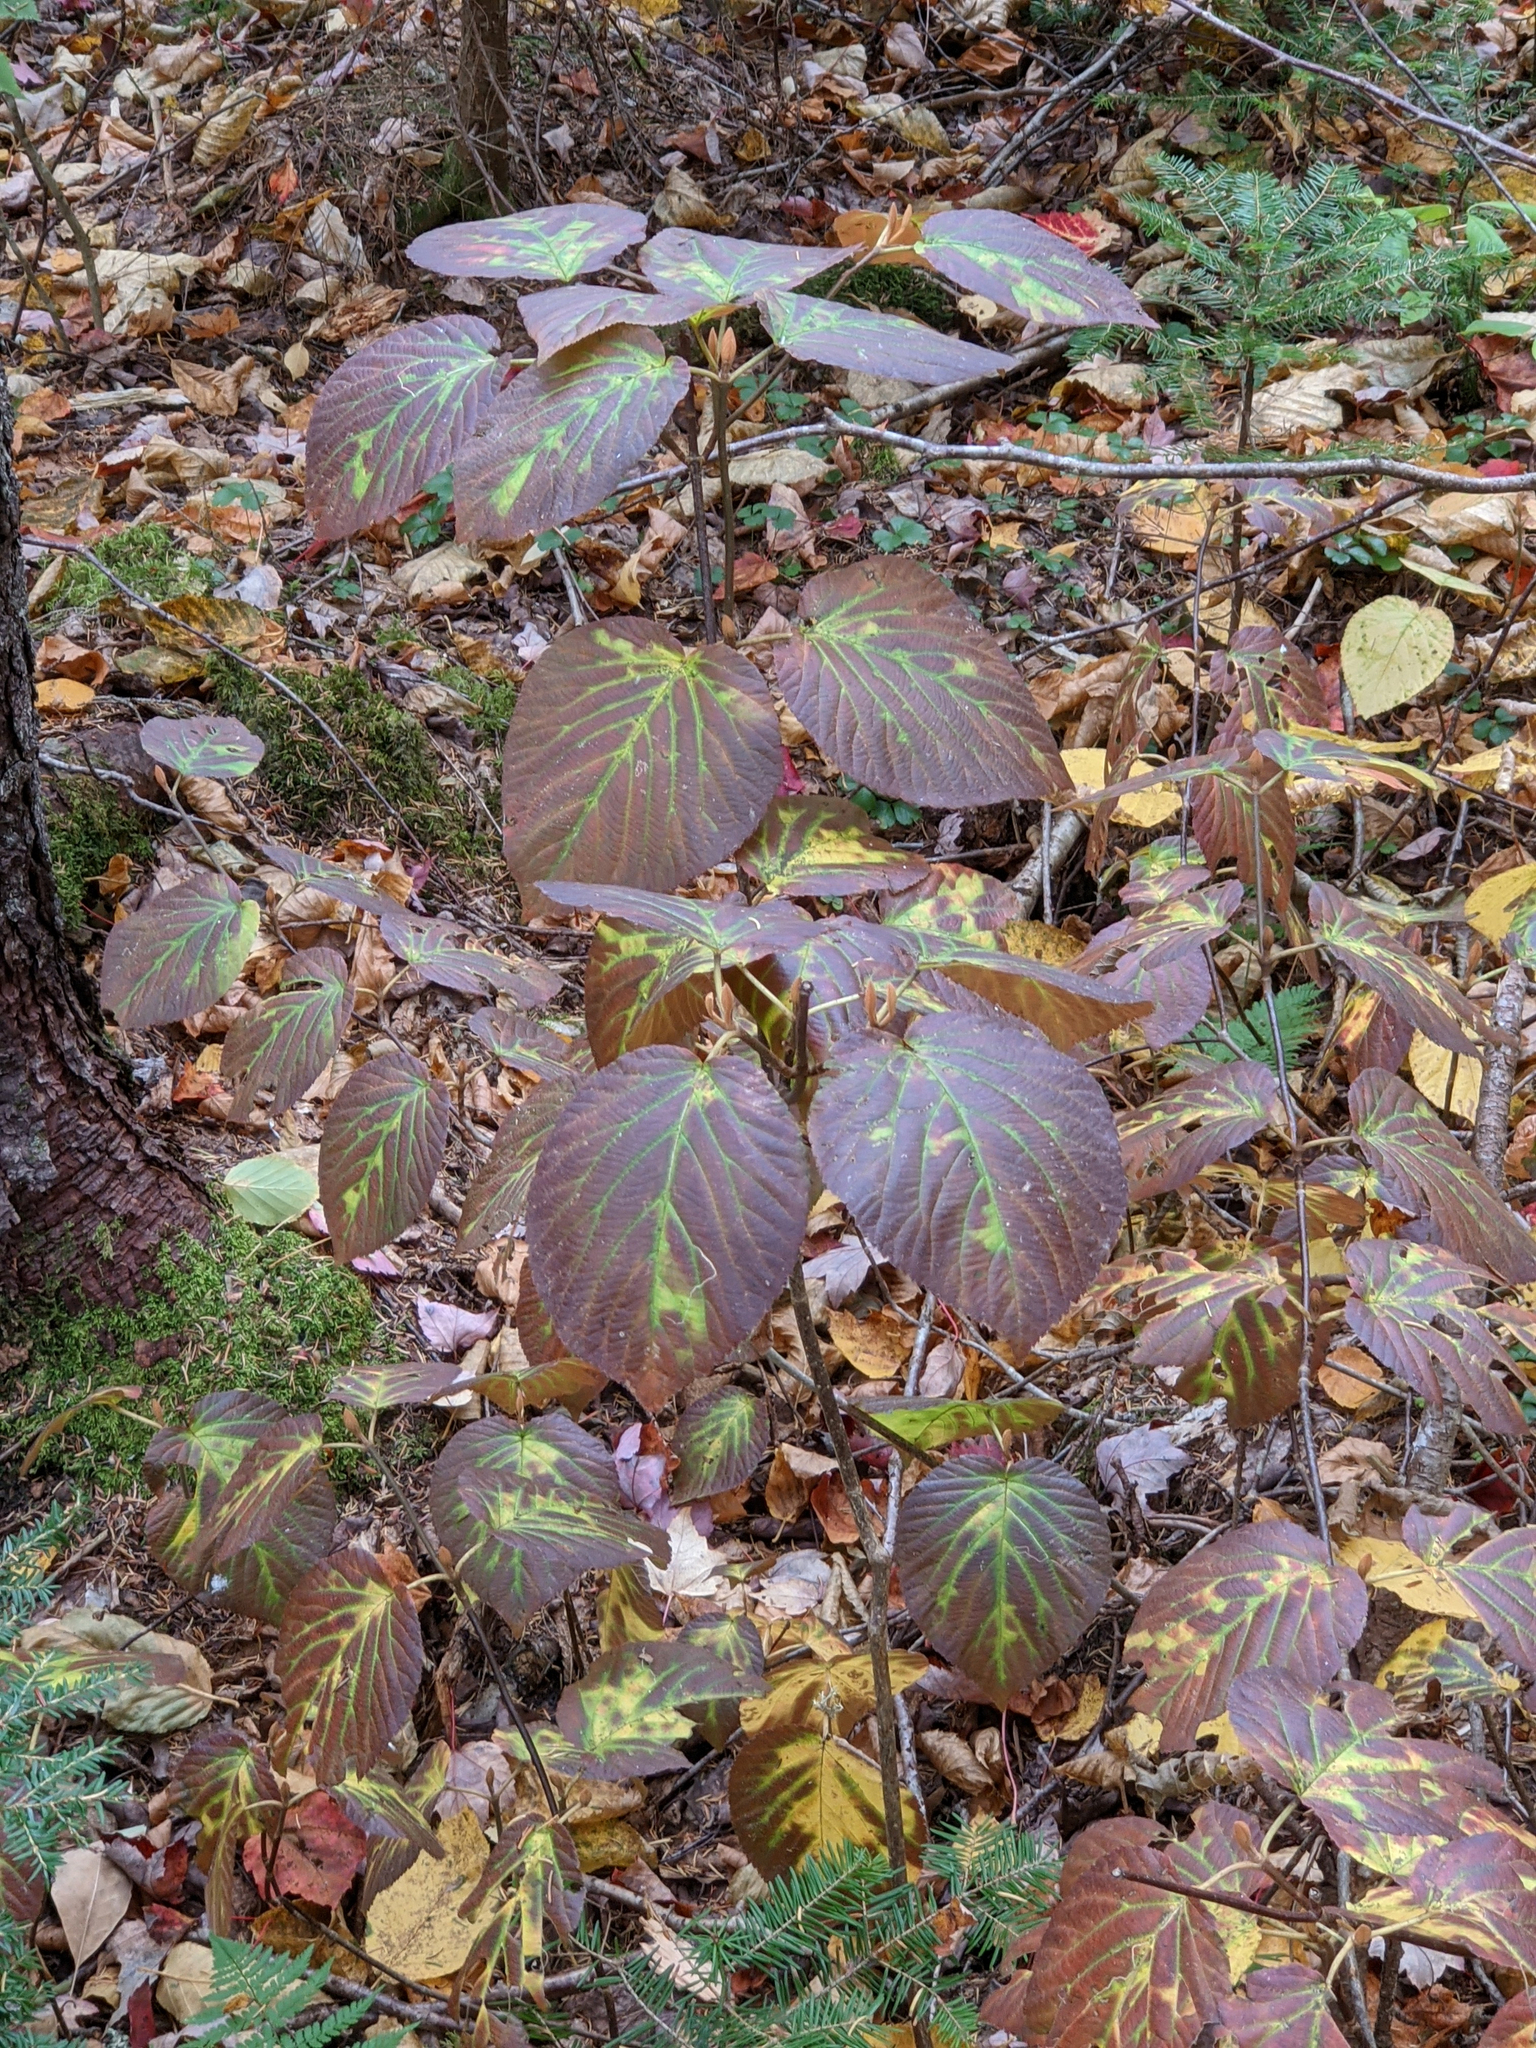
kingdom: Plantae
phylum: Tracheophyta
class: Magnoliopsida
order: Dipsacales
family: Viburnaceae
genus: Viburnum
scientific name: Viburnum lantanoides
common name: Hobblebush
